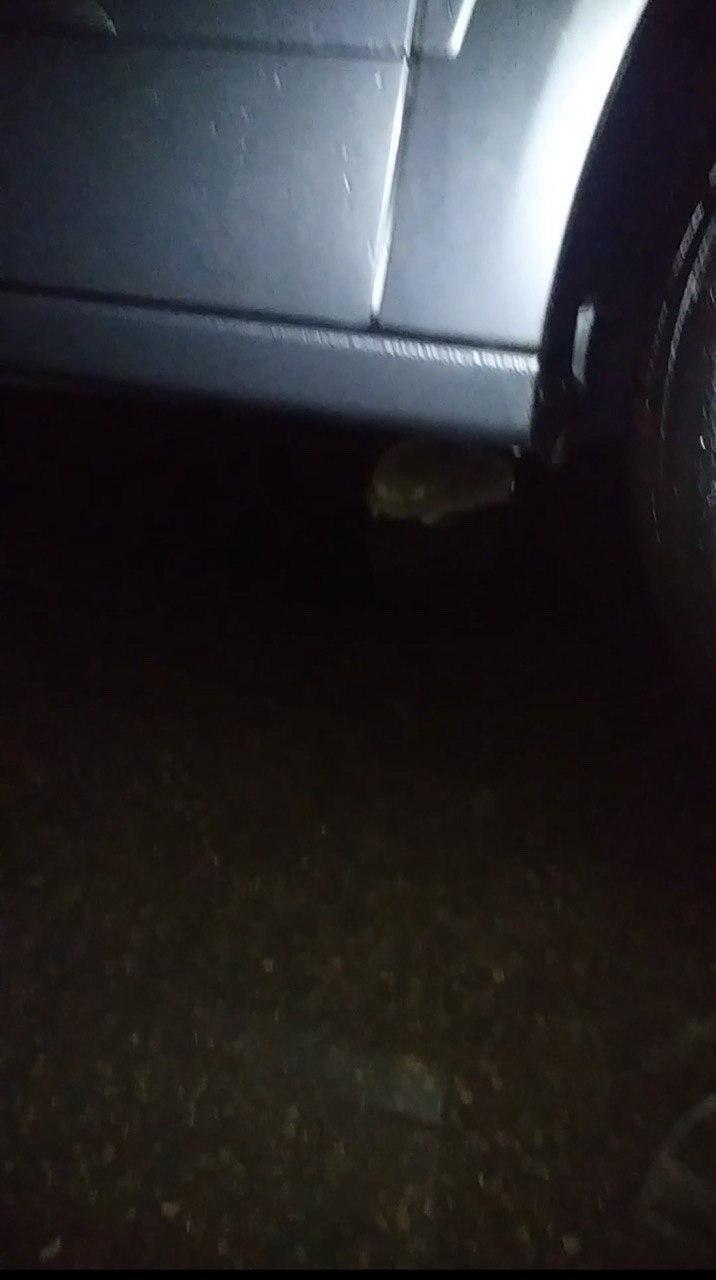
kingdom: Animalia
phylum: Chordata
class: Mammalia
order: Erinaceomorpha
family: Erinaceidae
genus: Erinaceus
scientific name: Erinaceus europaeus
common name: West european hedgehog
